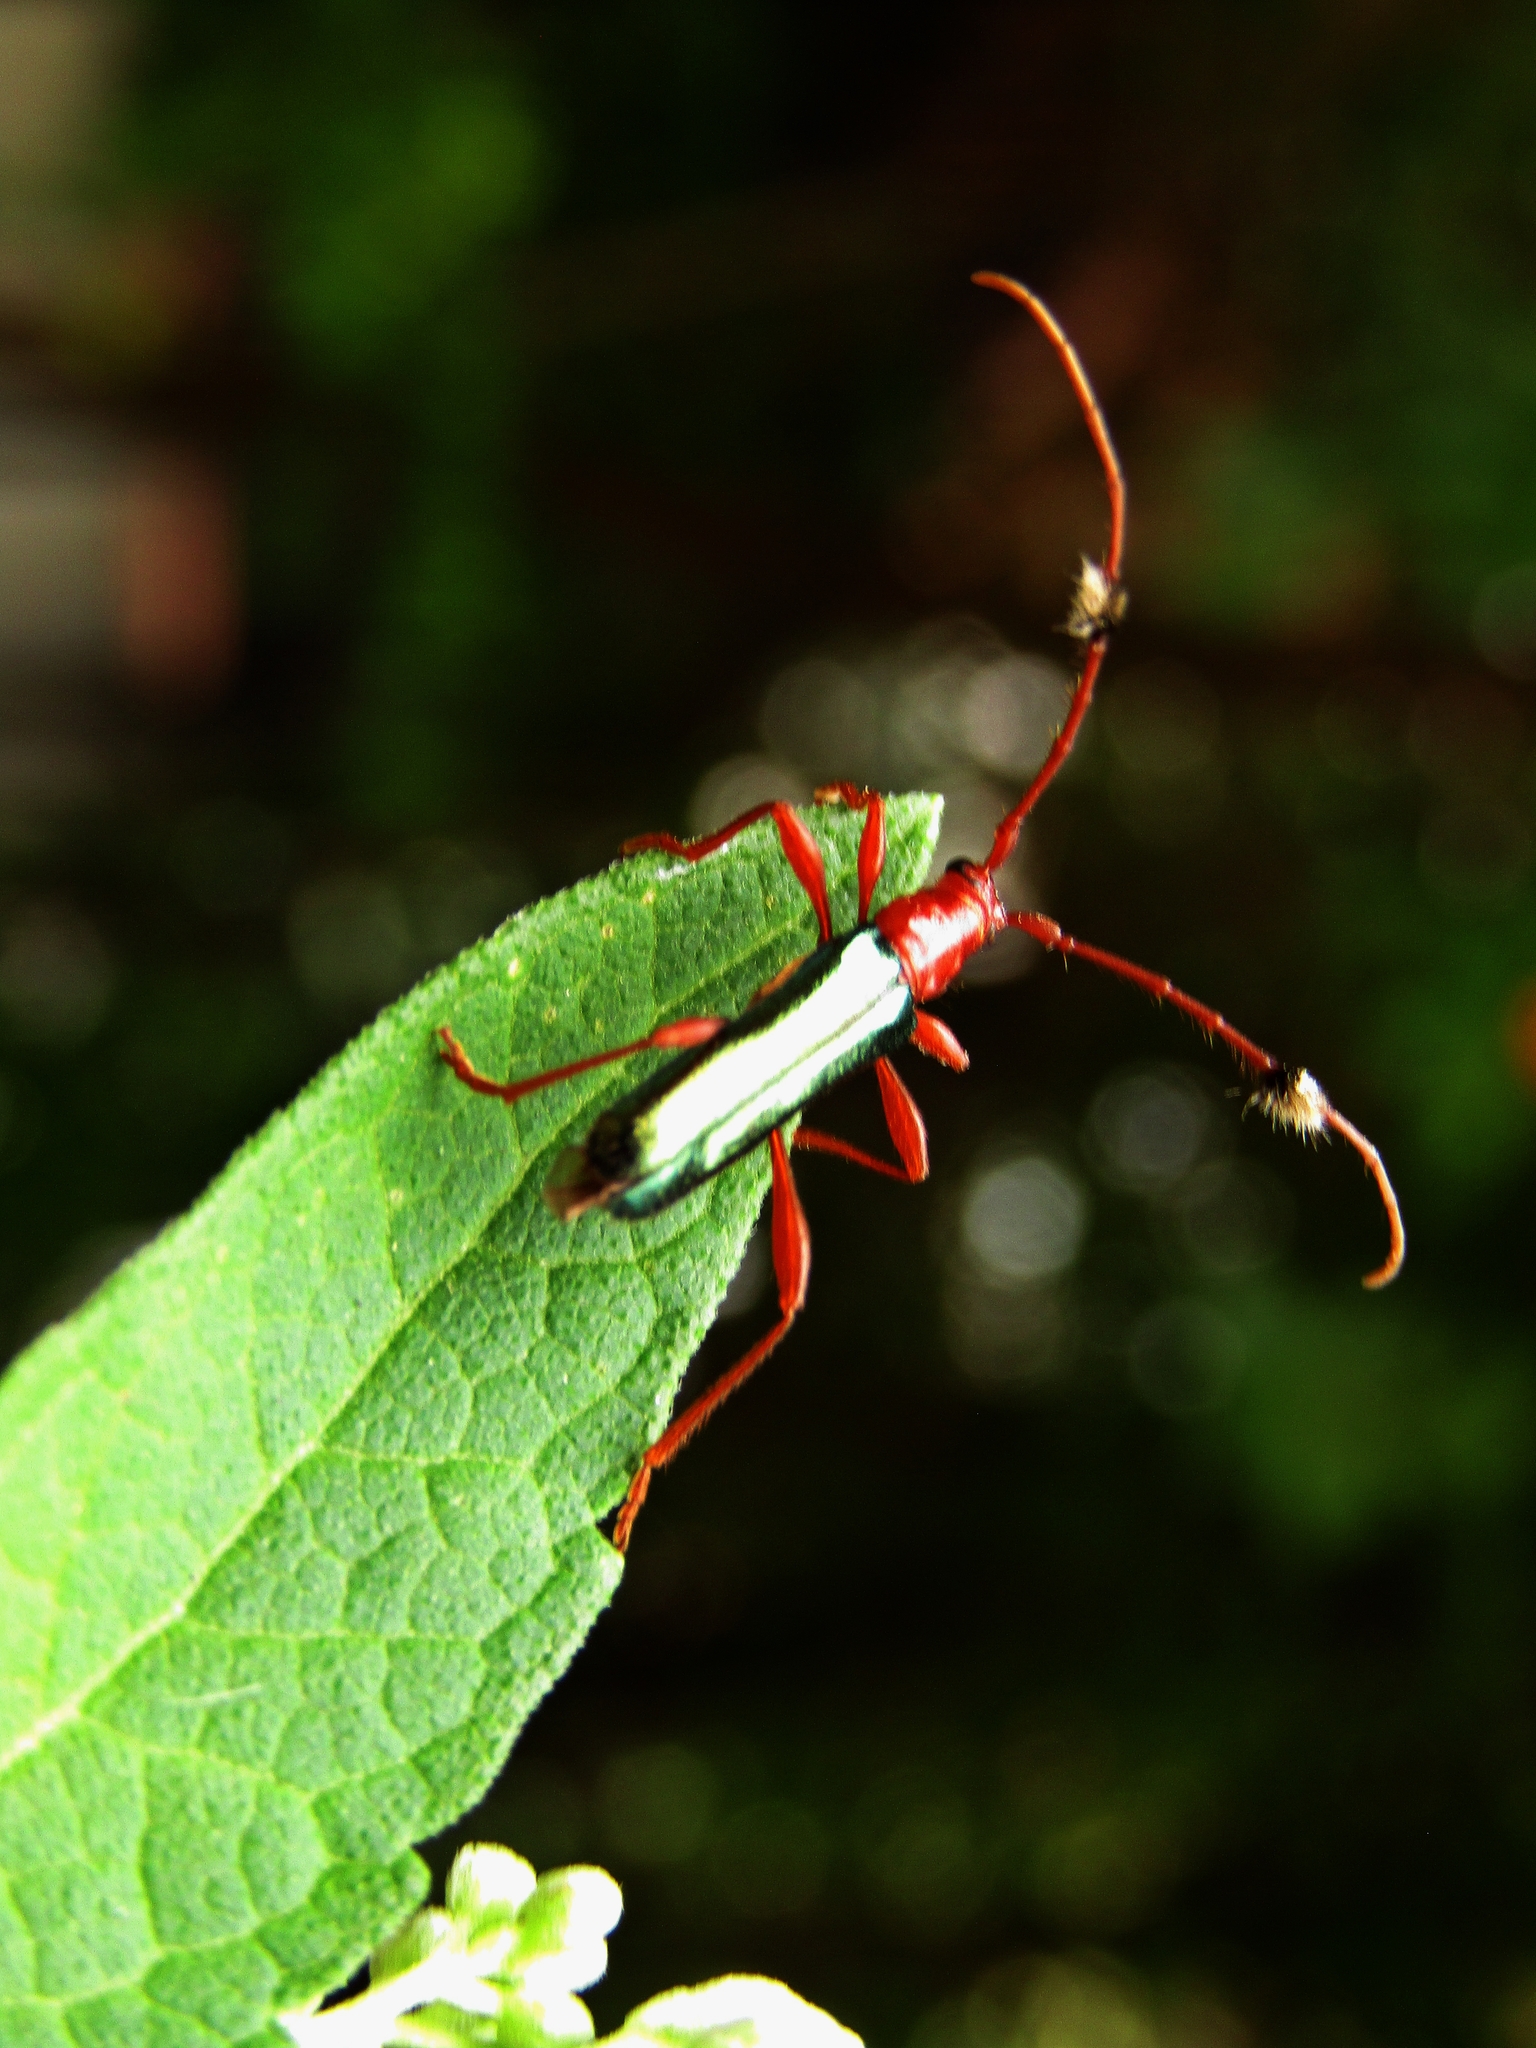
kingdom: Animalia
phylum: Arthropoda
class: Insecta
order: Coleoptera
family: Cerambycidae
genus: Paromoeocerus
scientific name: Paromoeocerus barbicornis
